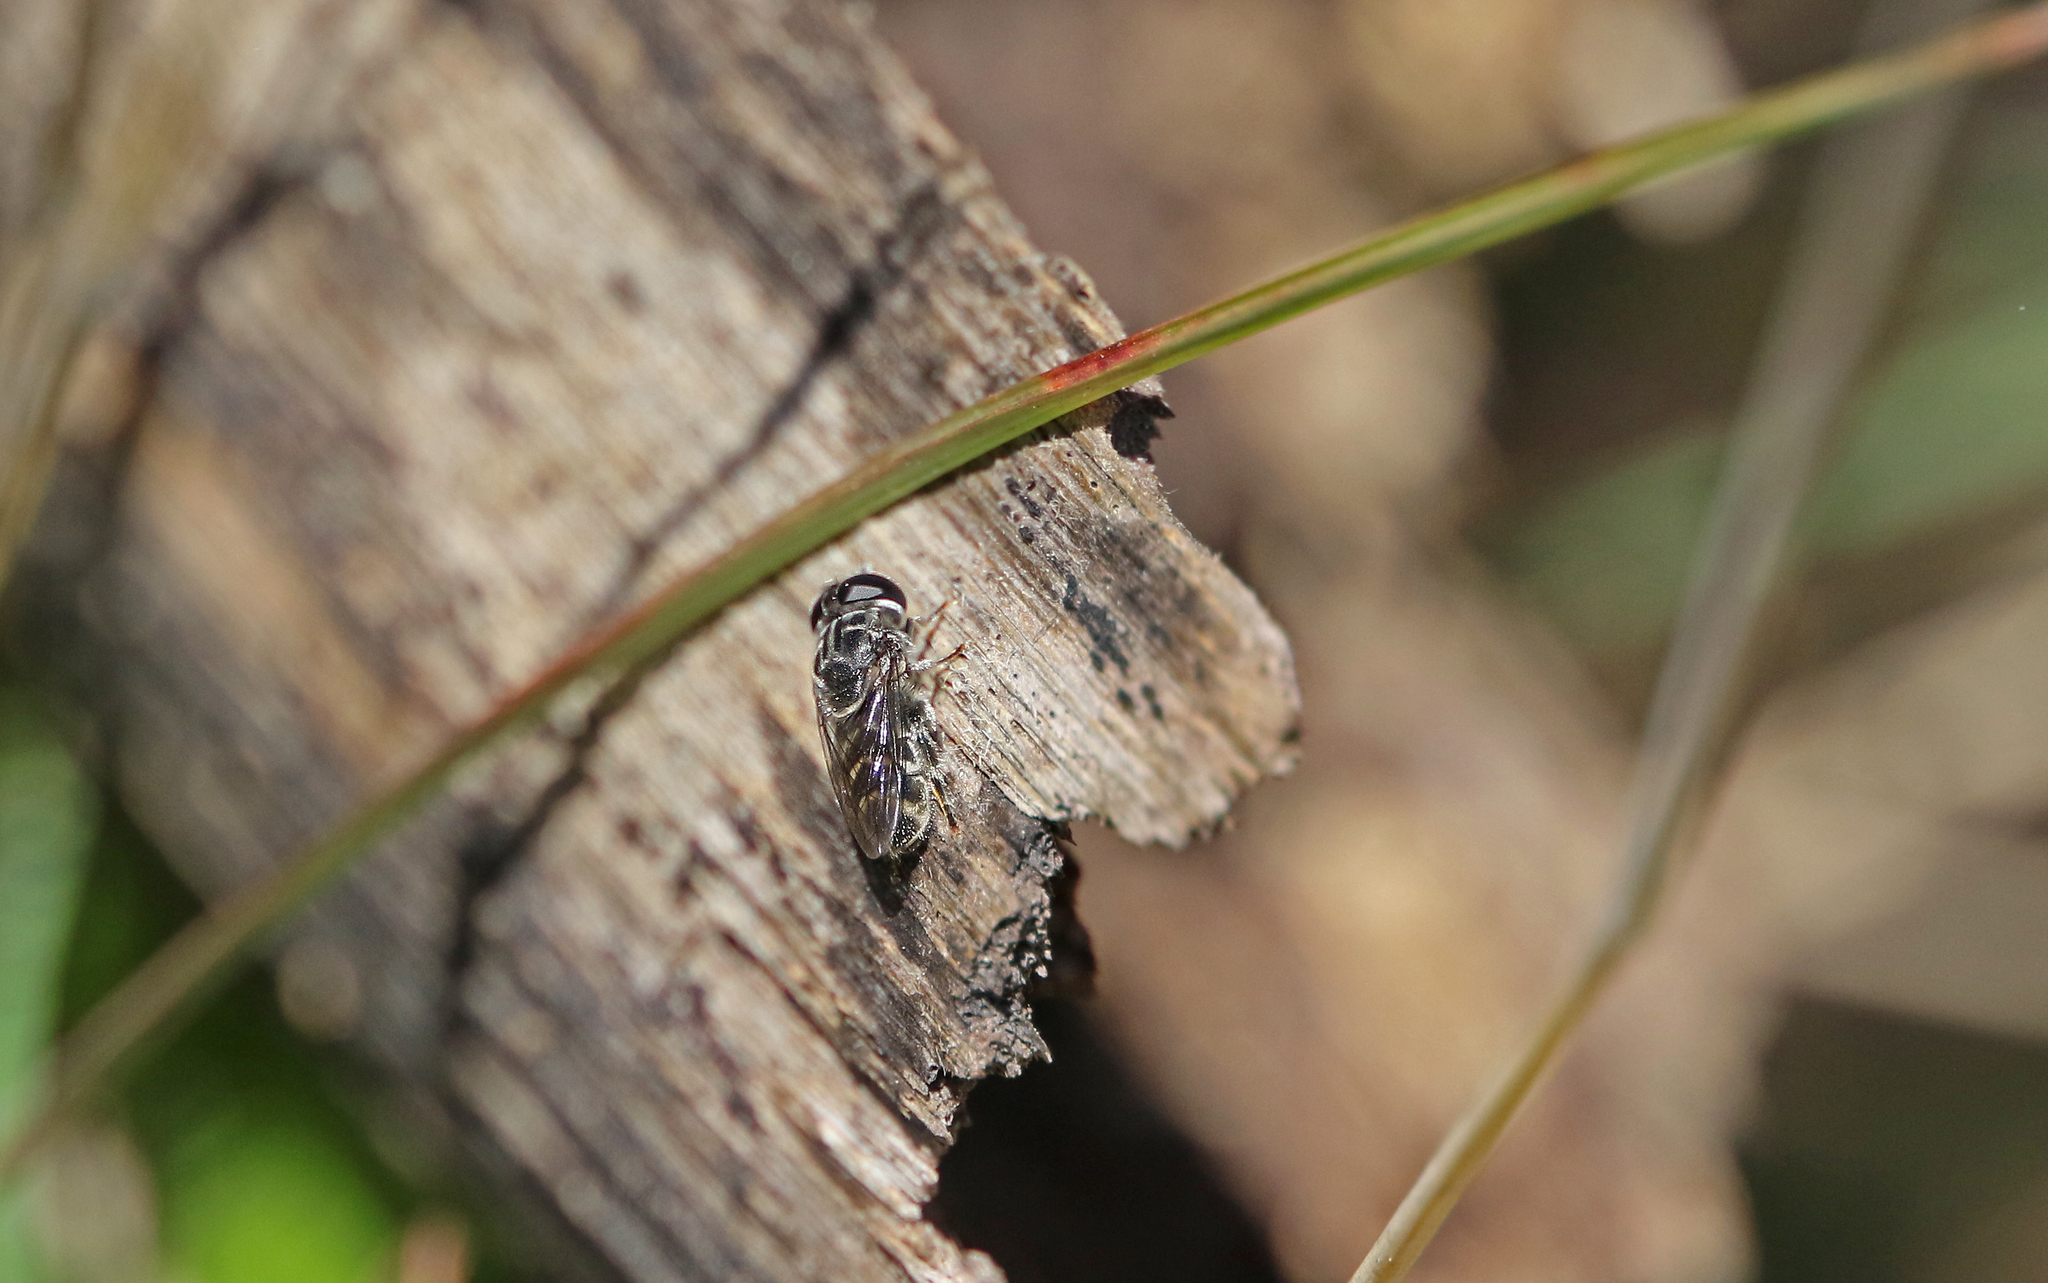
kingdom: Animalia
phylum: Arthropoda
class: Insecta
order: Diptera
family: Syrphidae
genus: Eumerus
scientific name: Eumerus obliquus
